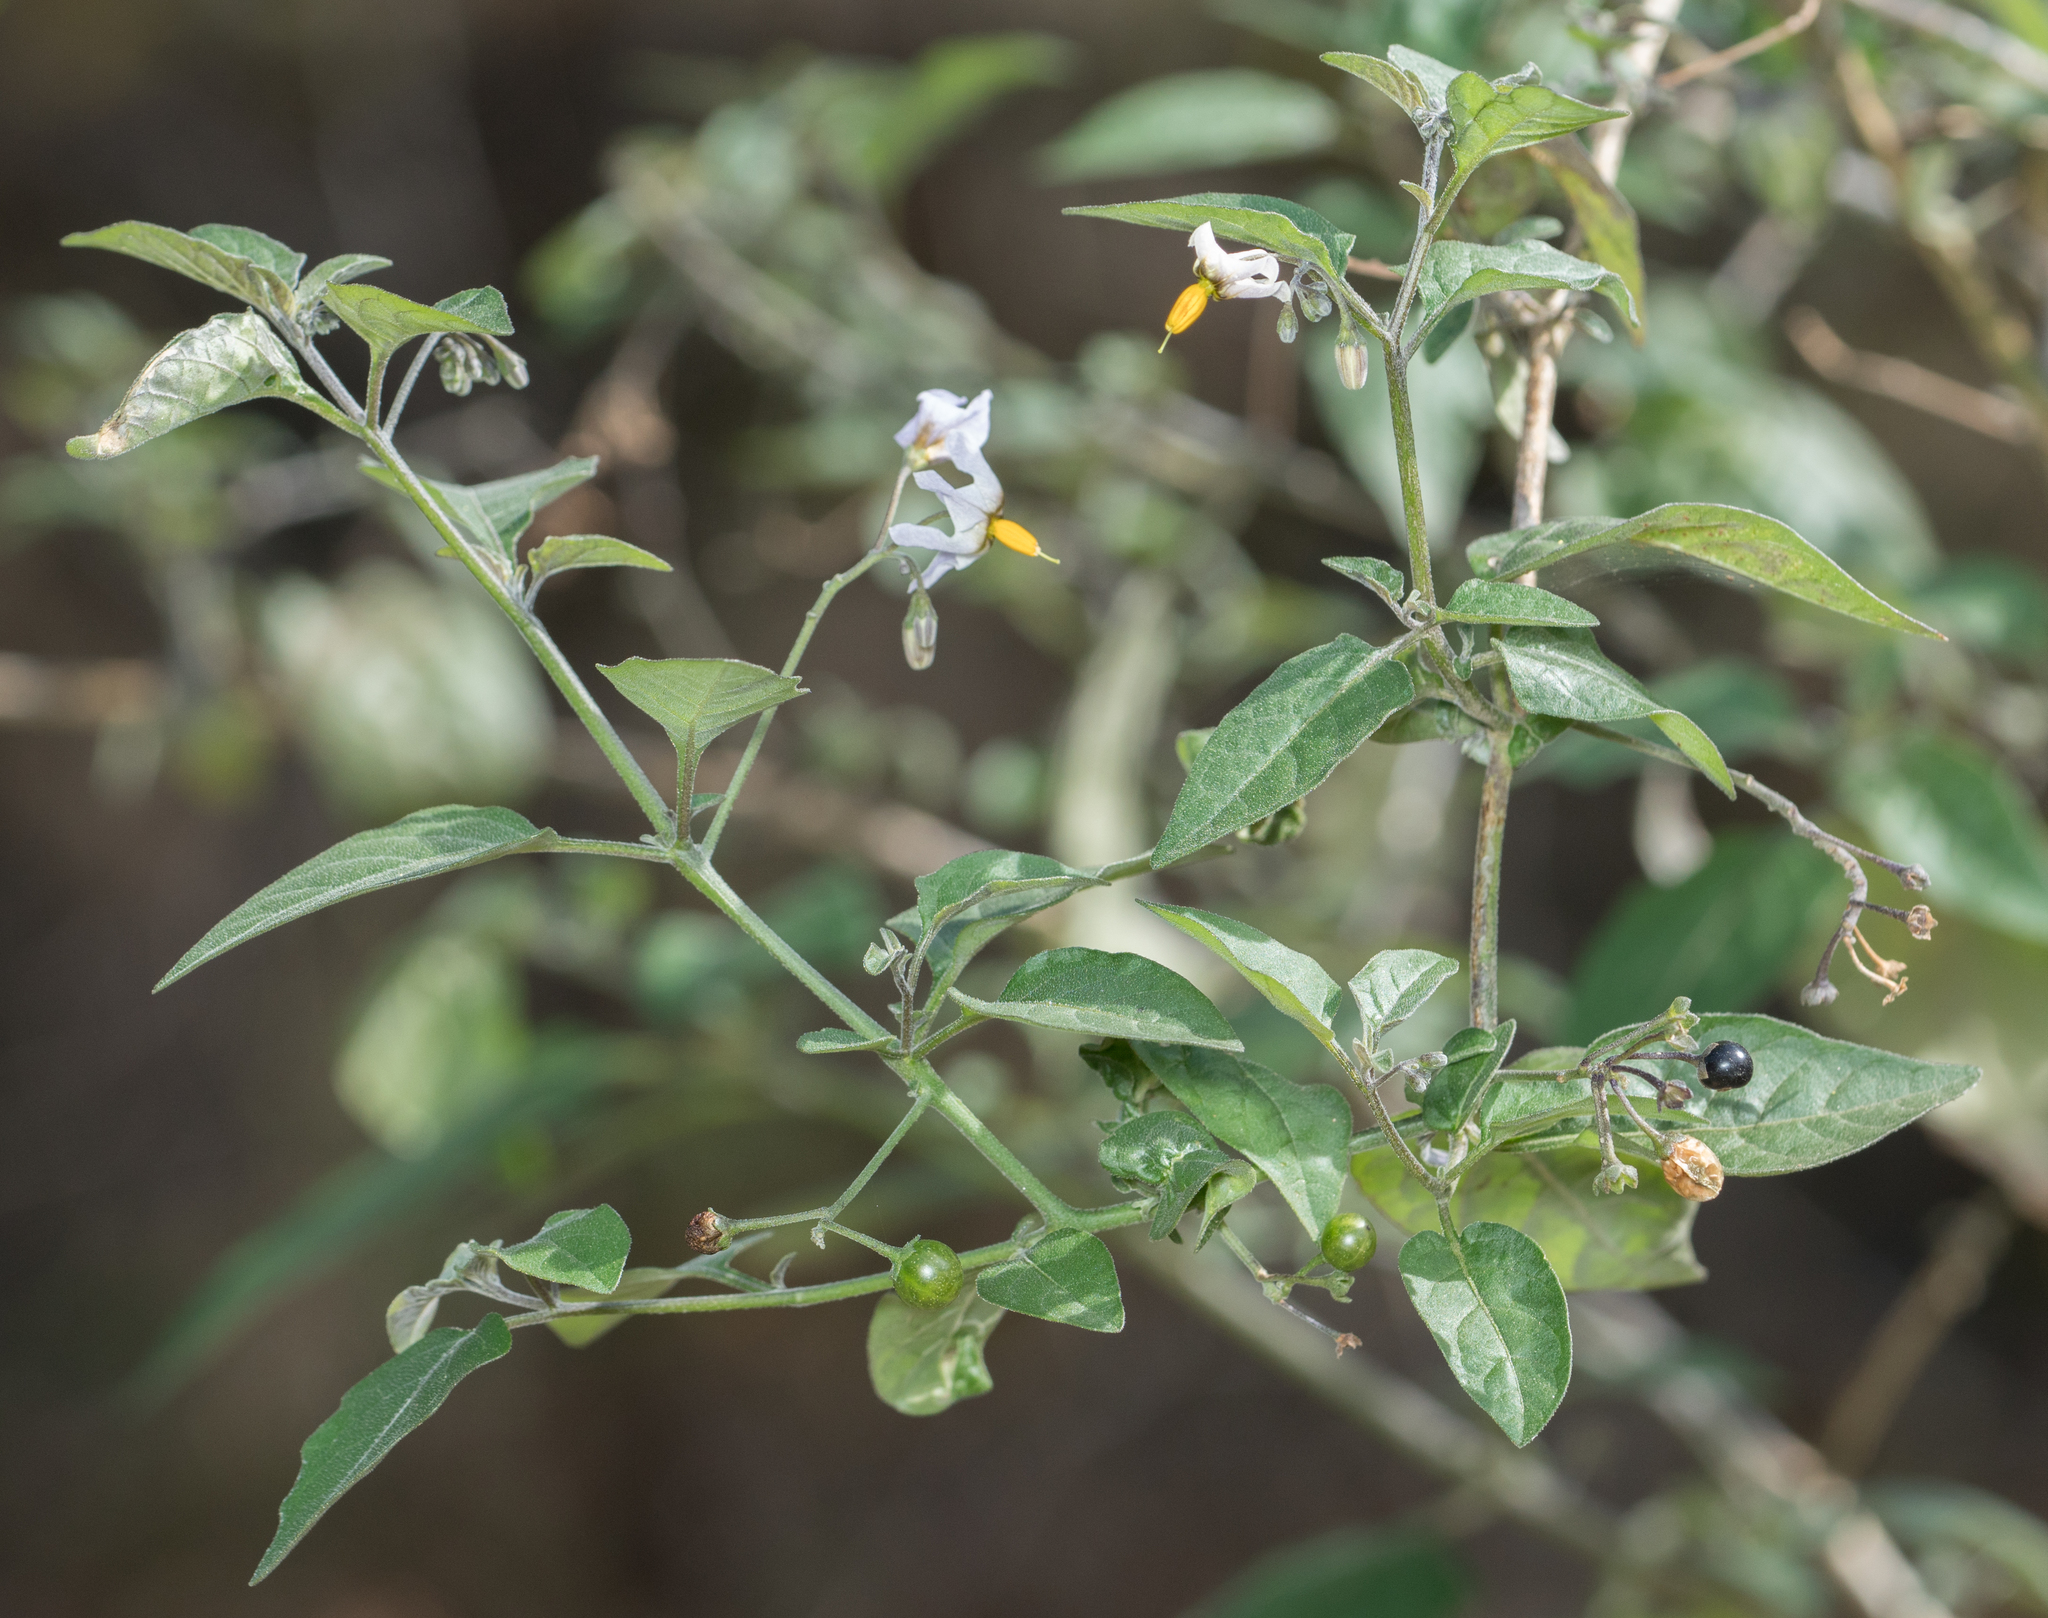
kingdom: Plantae
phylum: Tracheophyta
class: Magnoliopsida
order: Solanales
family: Solanaceae
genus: Solanum
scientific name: Solanum douglasii
